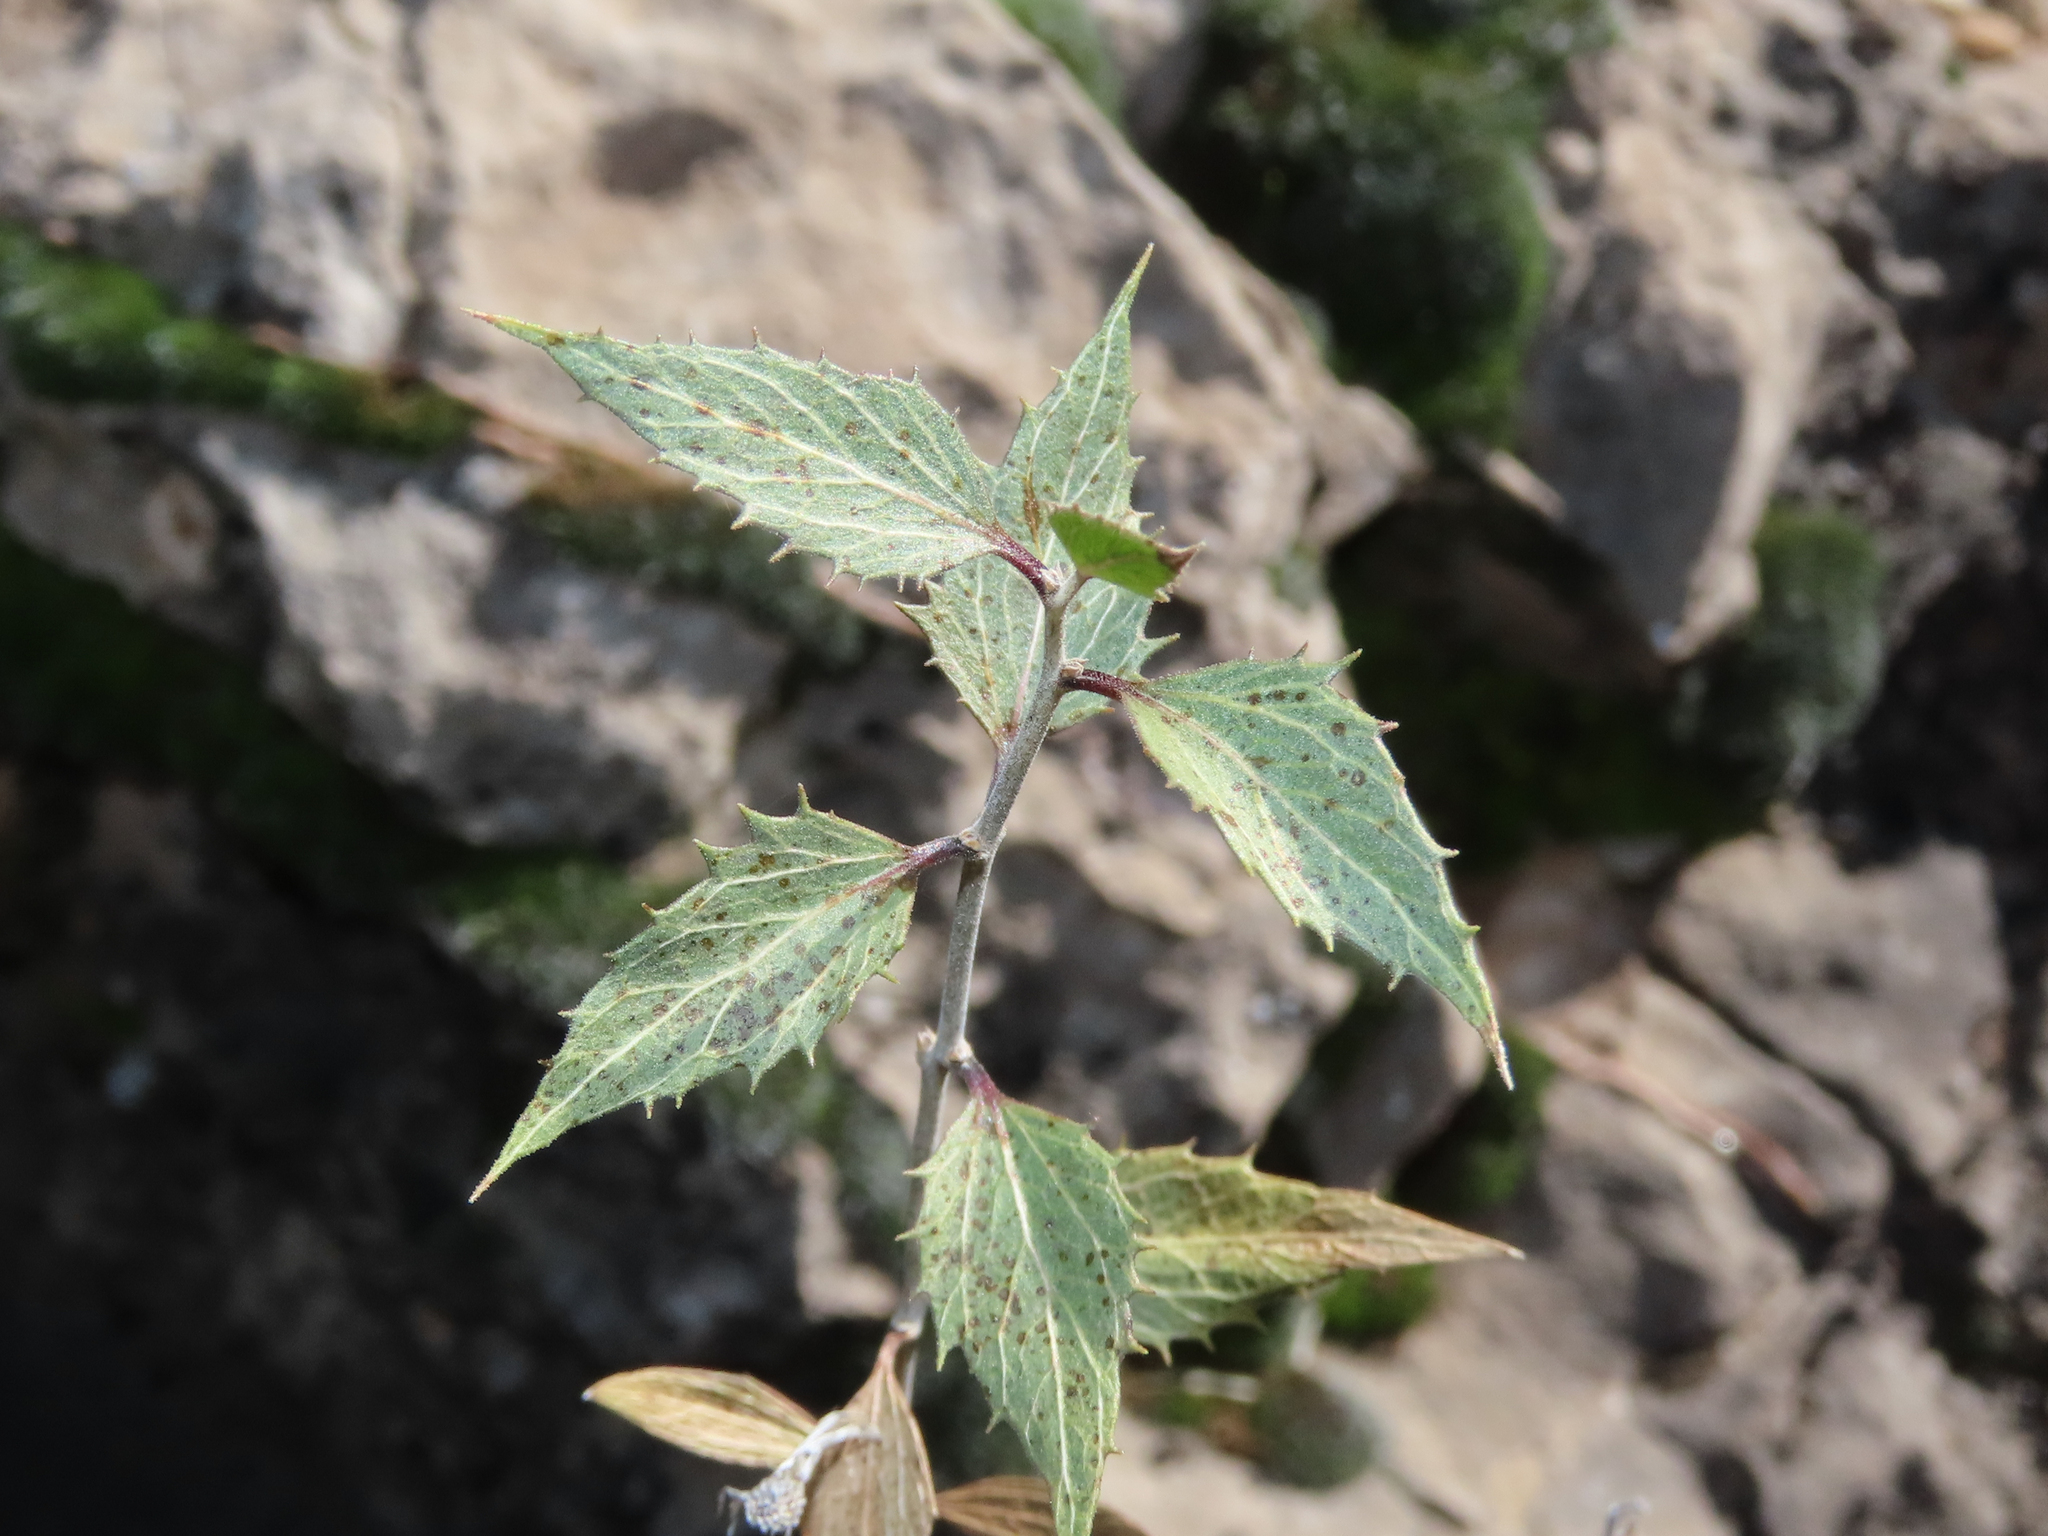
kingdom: Plantae
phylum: Tracheophyta
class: Magnoliopsida
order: Asterales
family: Asteraceae
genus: Brickellia
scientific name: Brickellia atractyloides
